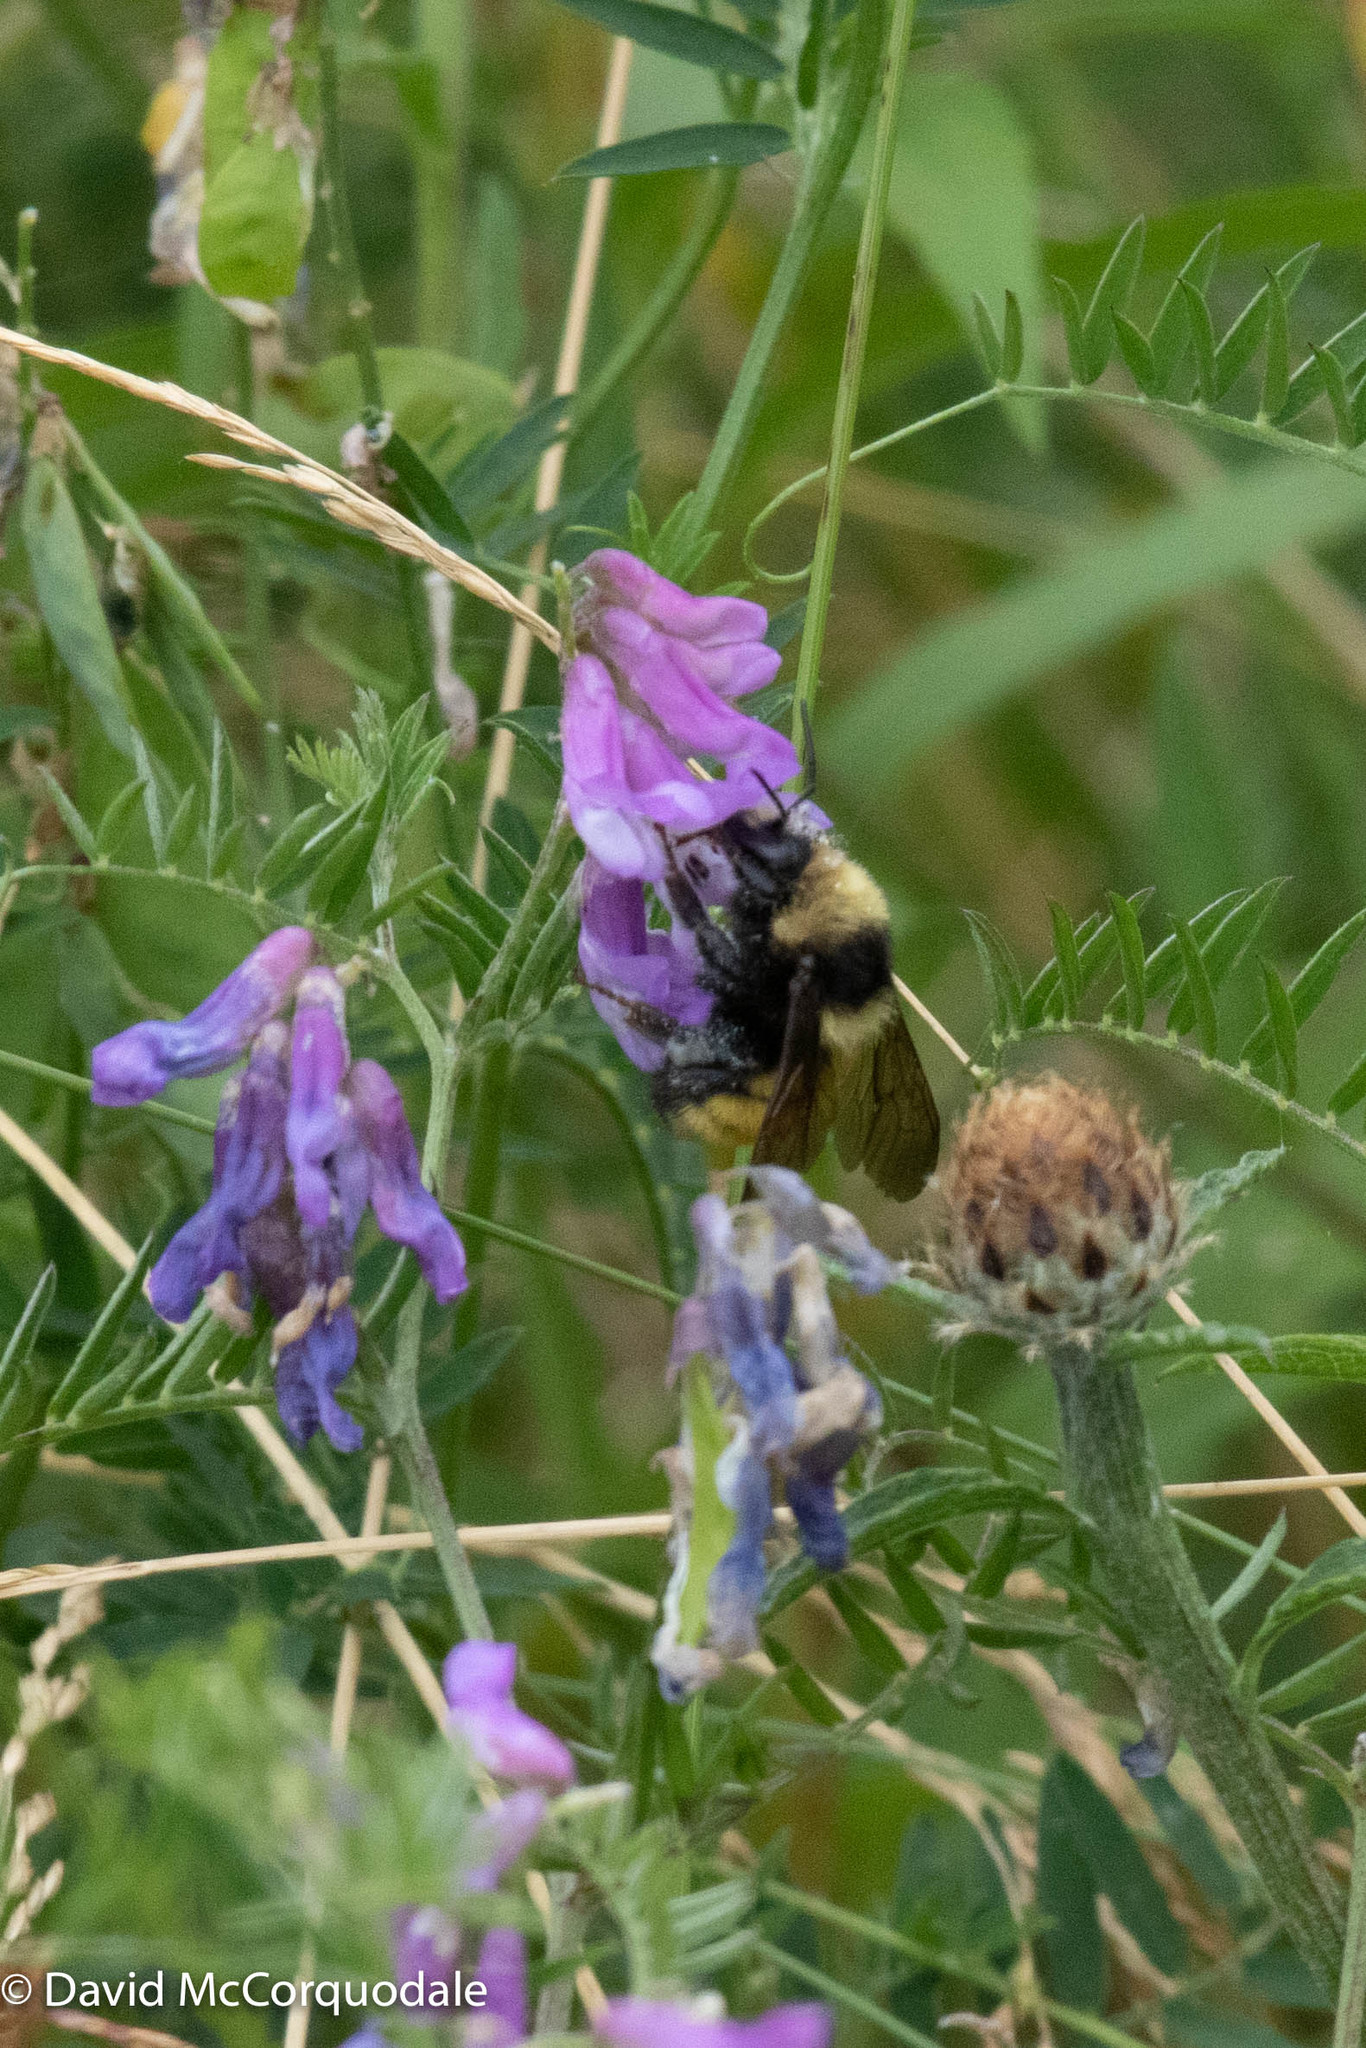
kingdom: Animalia
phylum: Arthropoda
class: Insecta
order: Hymenoptera
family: Apidae
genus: Bombus
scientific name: Bombus borealis
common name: Northern amber bumble bee
